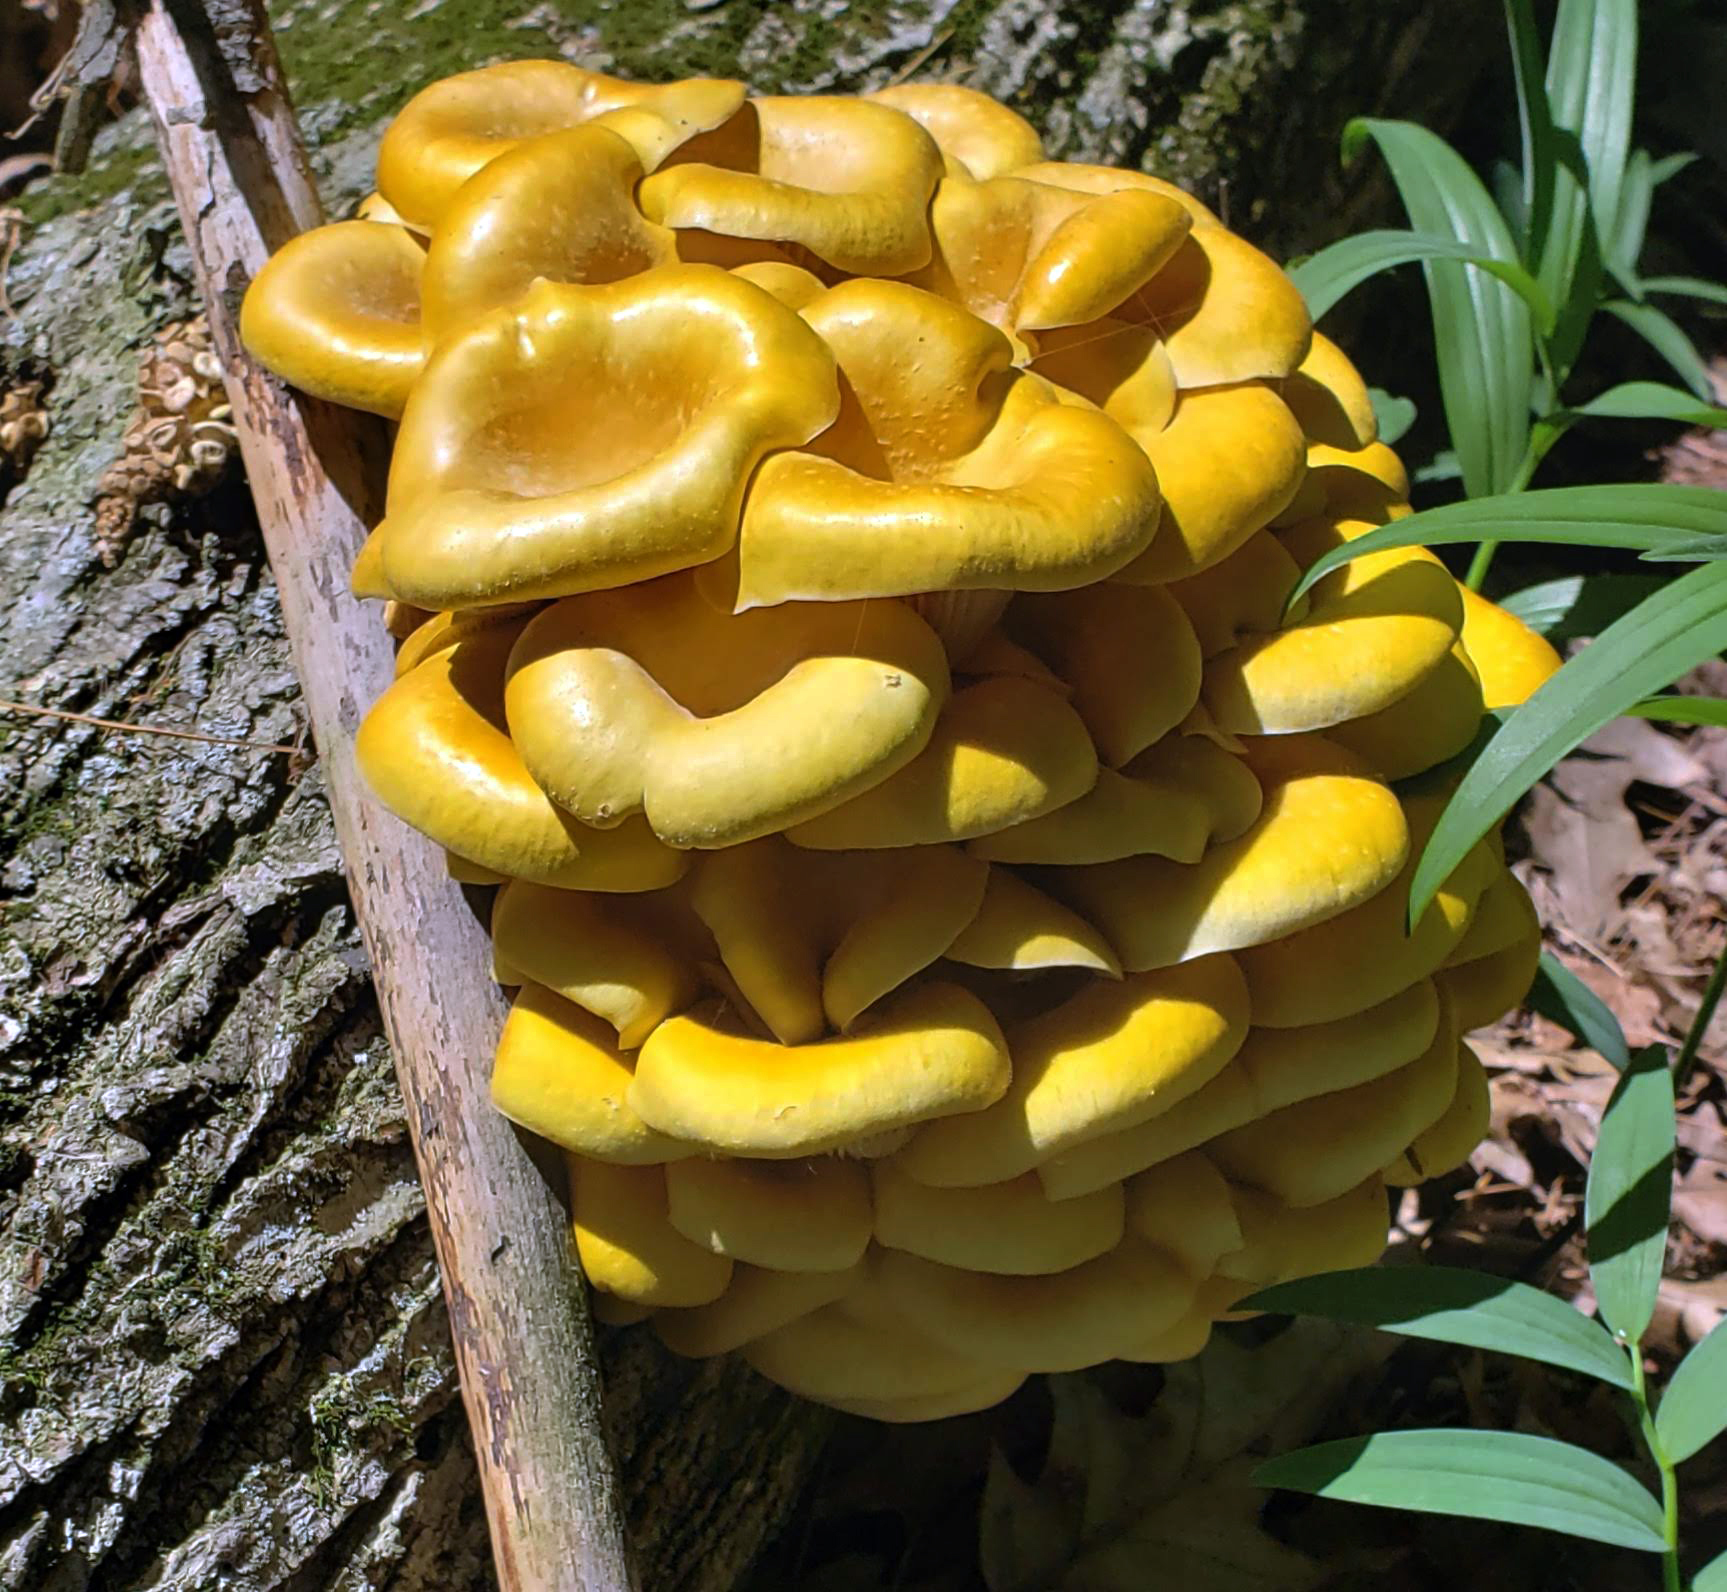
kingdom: Fungi
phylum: Basidiomycota
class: Agaricomycetes
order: Agaricales
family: Pleurotaceae
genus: Pleurotus
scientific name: Pleurotus citrinopileatus
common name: Golden oyster mushroom
